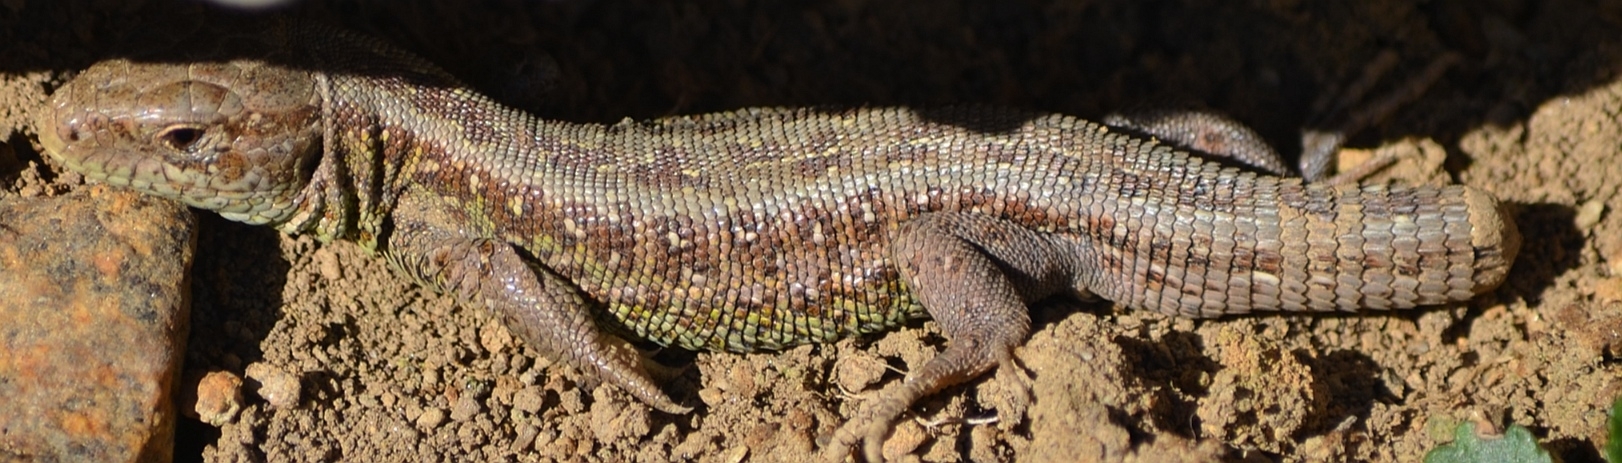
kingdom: Animalia
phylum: Chordata
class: Squamata
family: Lacertidae
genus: Lacerta
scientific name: Lacerta agilis
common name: Sand lizard
